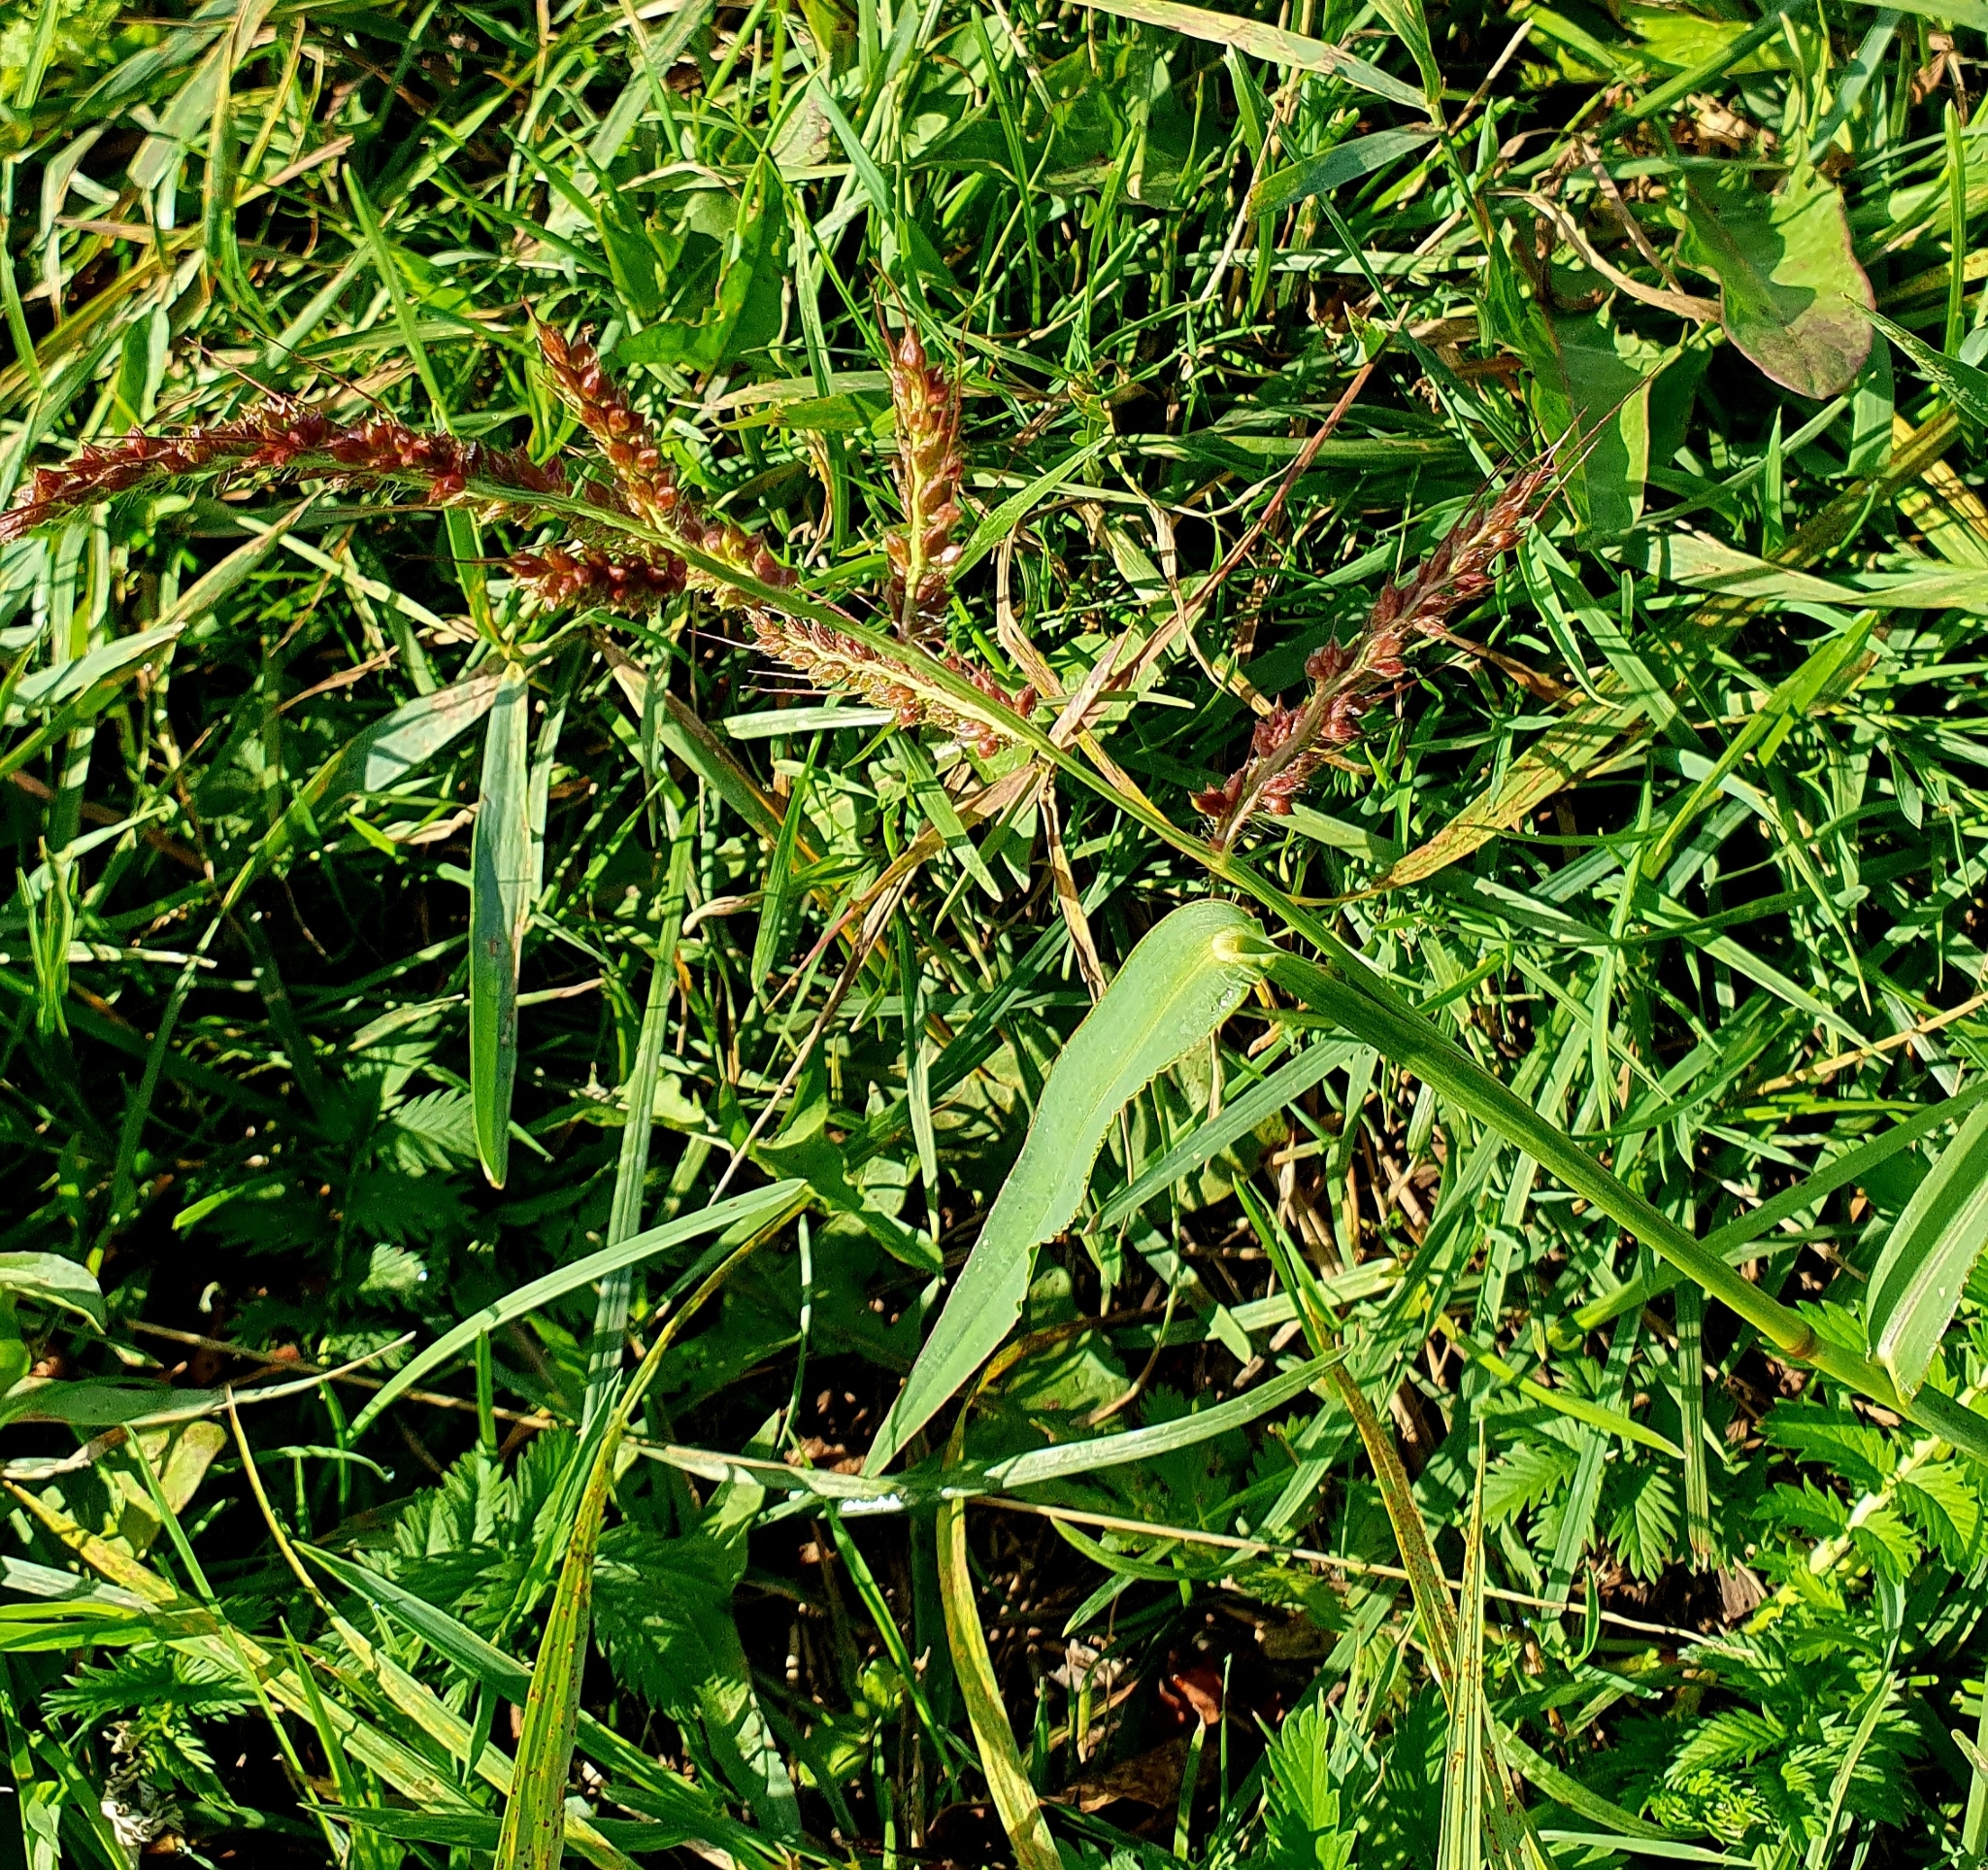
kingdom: Plantae
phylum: Tracheophyta
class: Liliopsida
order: Poales
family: Poaceae
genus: Echinochloa
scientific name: Echinochloa crus-galli
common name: Cockspur
